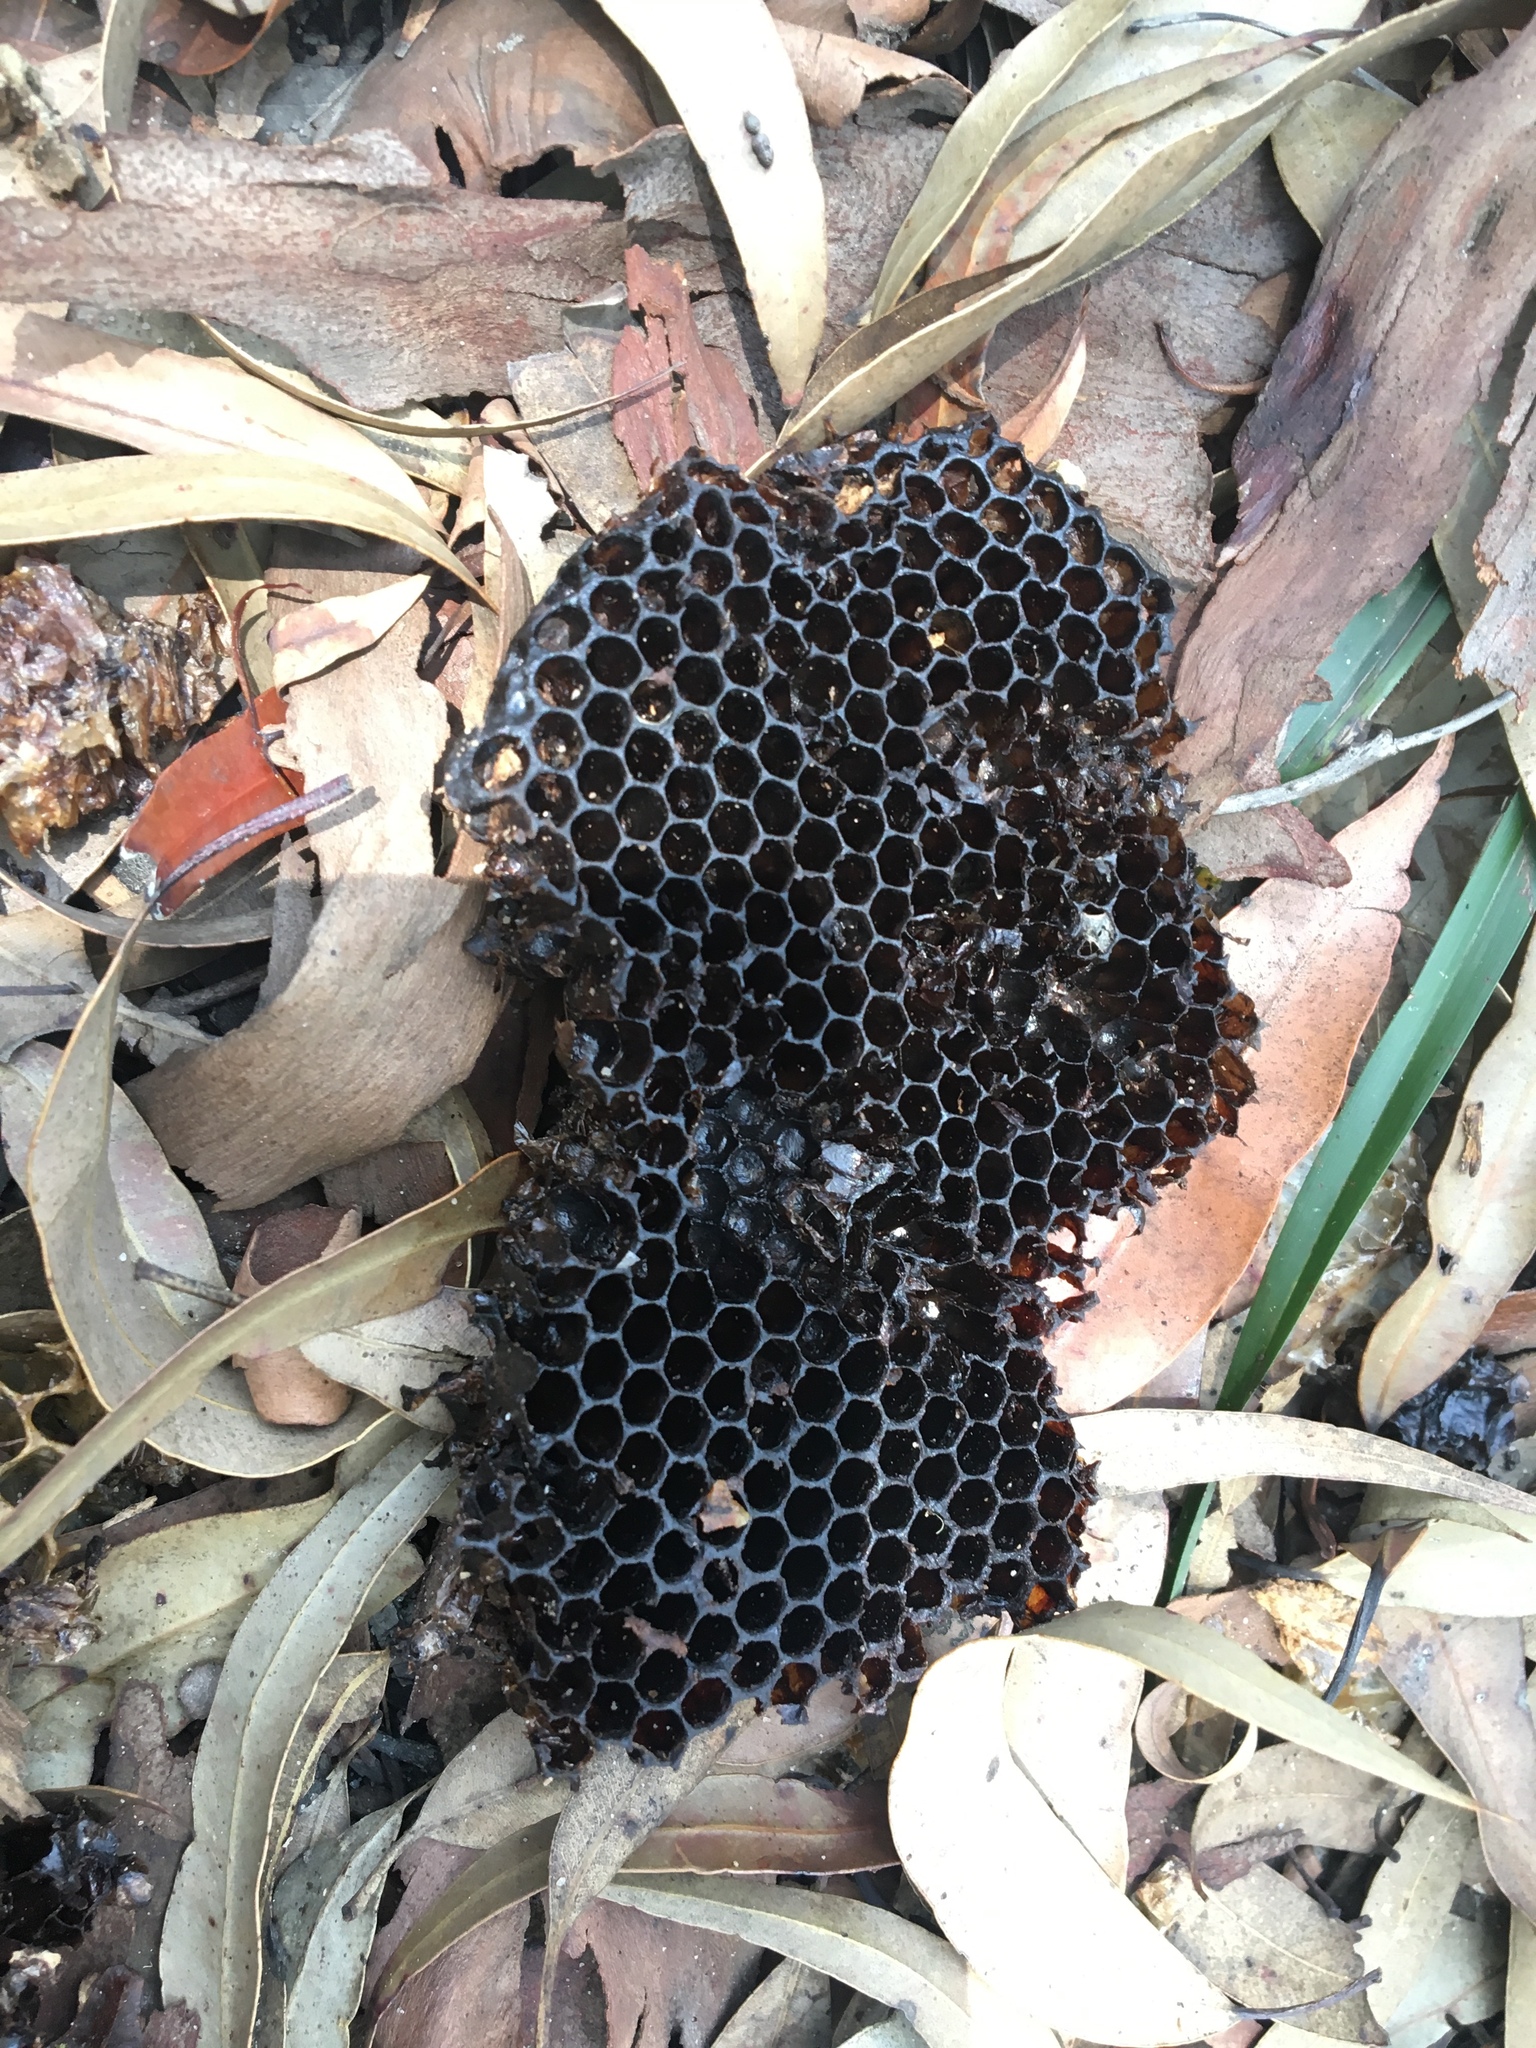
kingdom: Animalia
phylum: Arthropoda
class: Insecta
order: Hymenoptera
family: Apidae
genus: Apis
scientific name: Apis mellifera
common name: Honey bee
